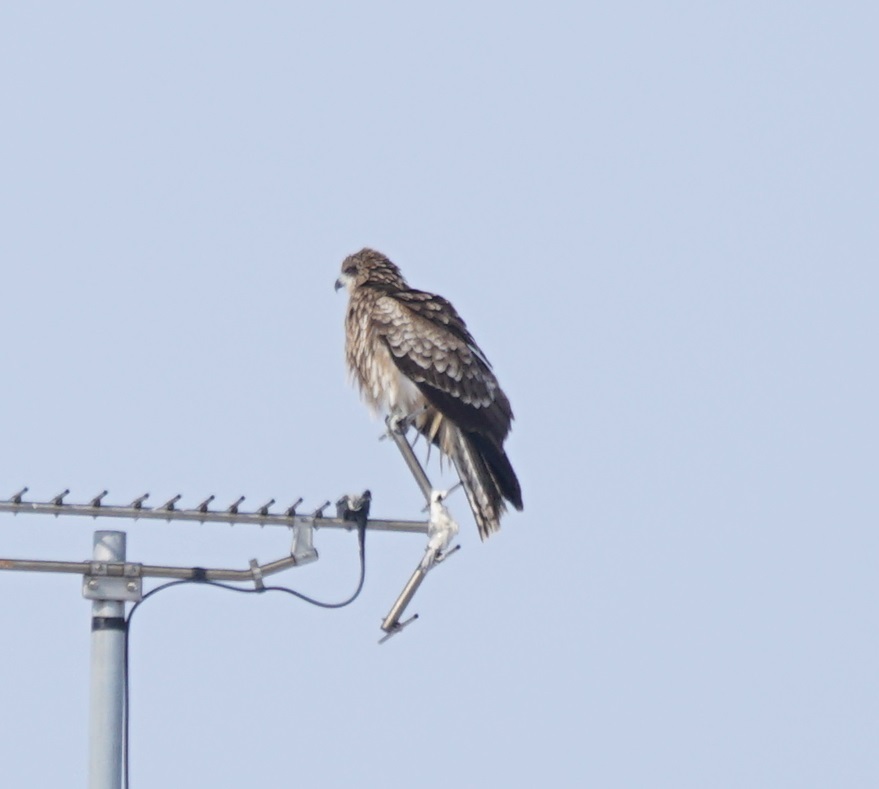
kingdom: Animalia
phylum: Chordata
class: Aves
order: Accipitriformes
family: Accipitridae
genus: Milvus
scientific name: Milvus migrans
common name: Black kite
